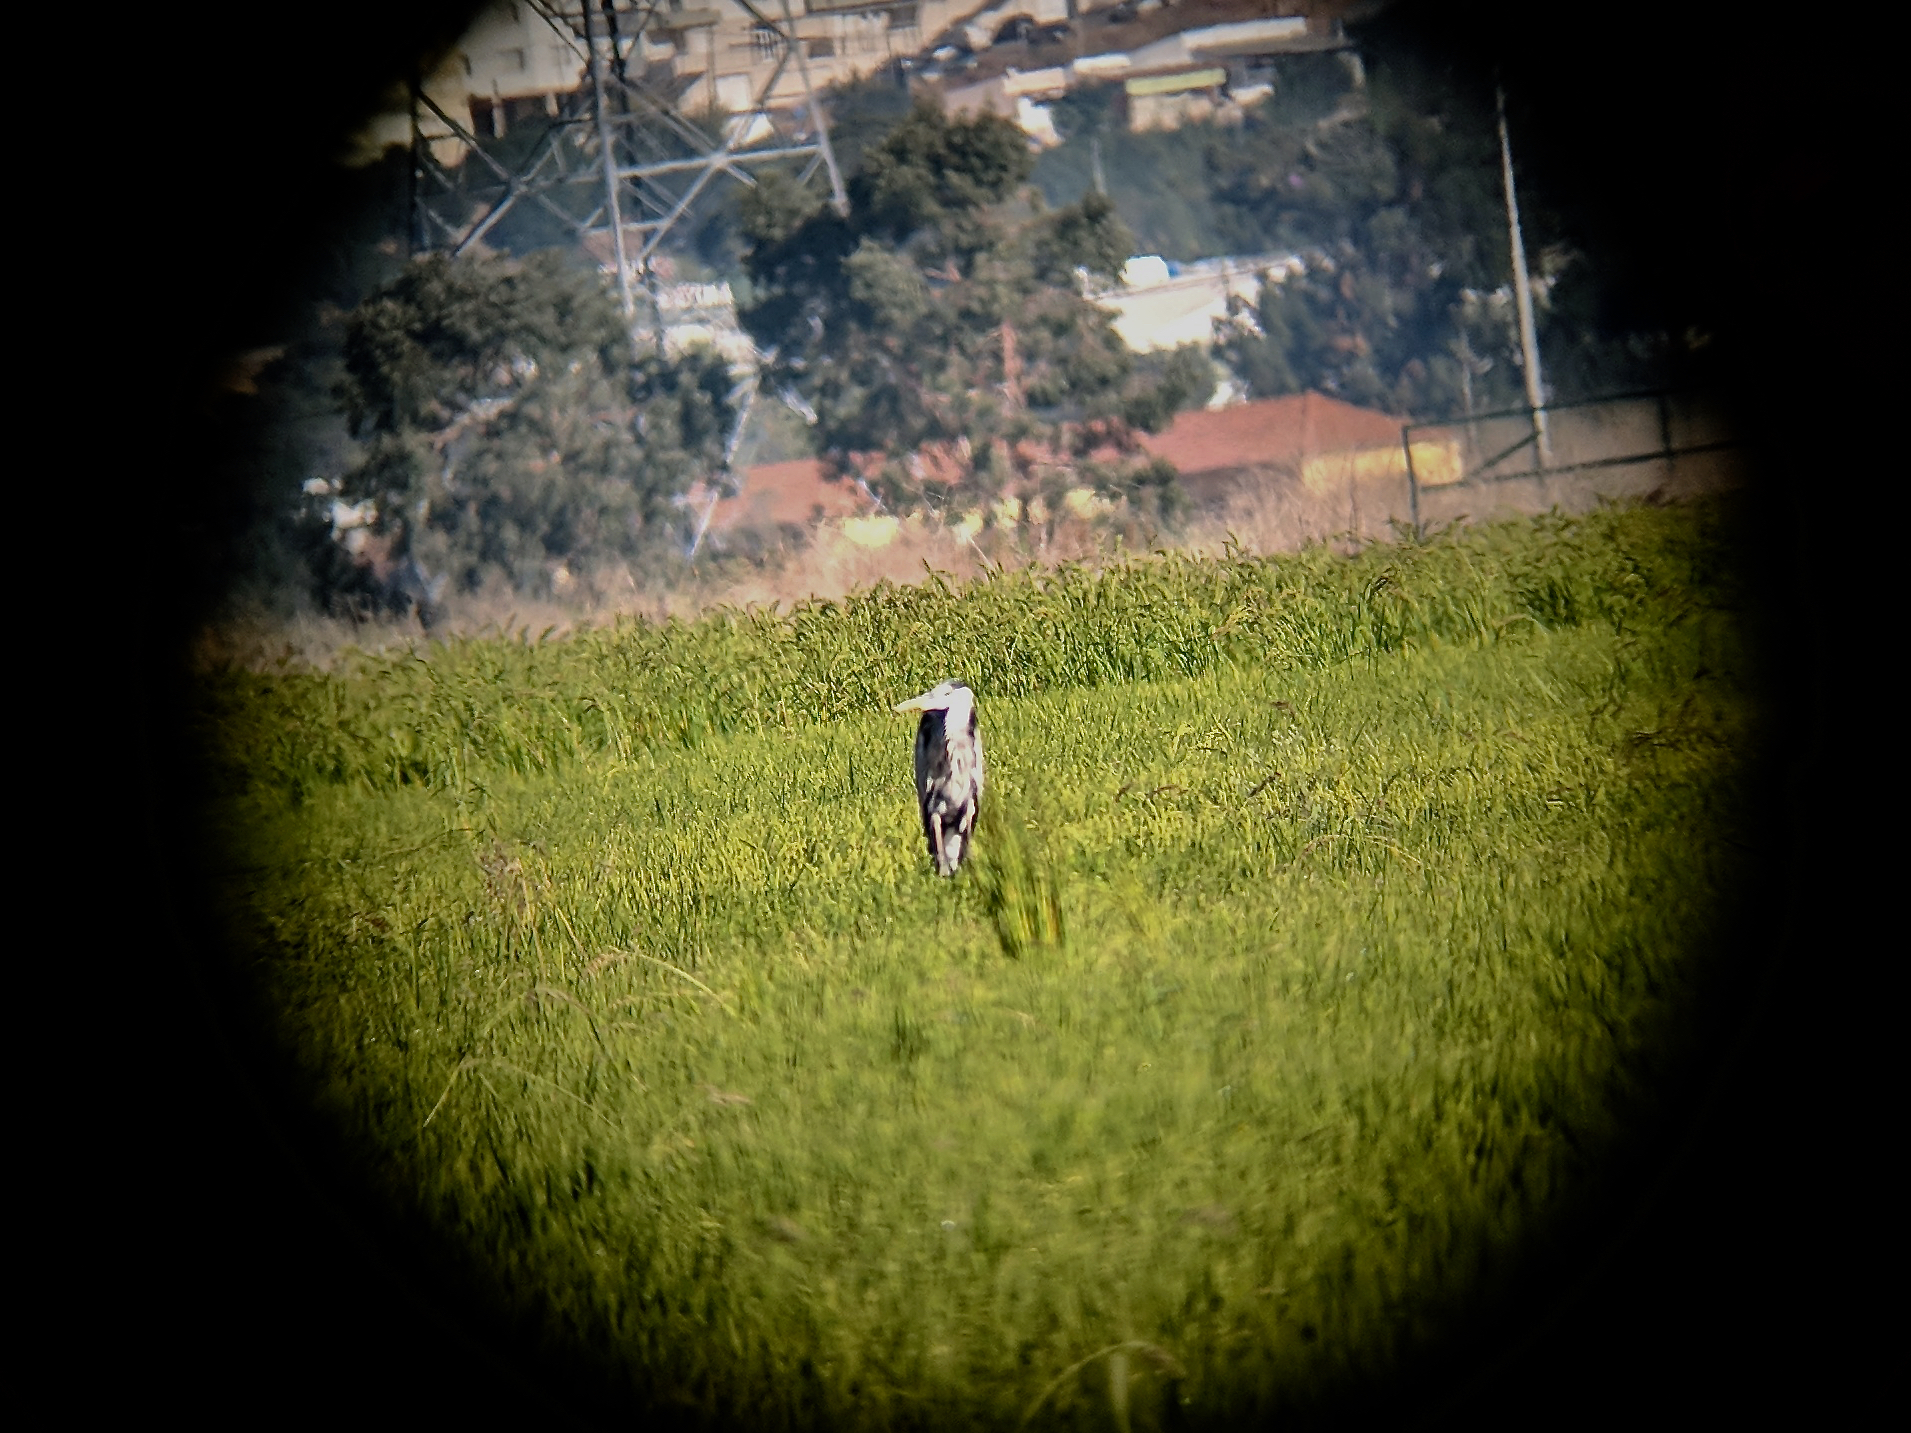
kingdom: Animalia
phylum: Chordata
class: Aves
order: Pelecaniformes
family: Ardeidae
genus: Ardea
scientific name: Ardea cinerea
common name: Grey heron
